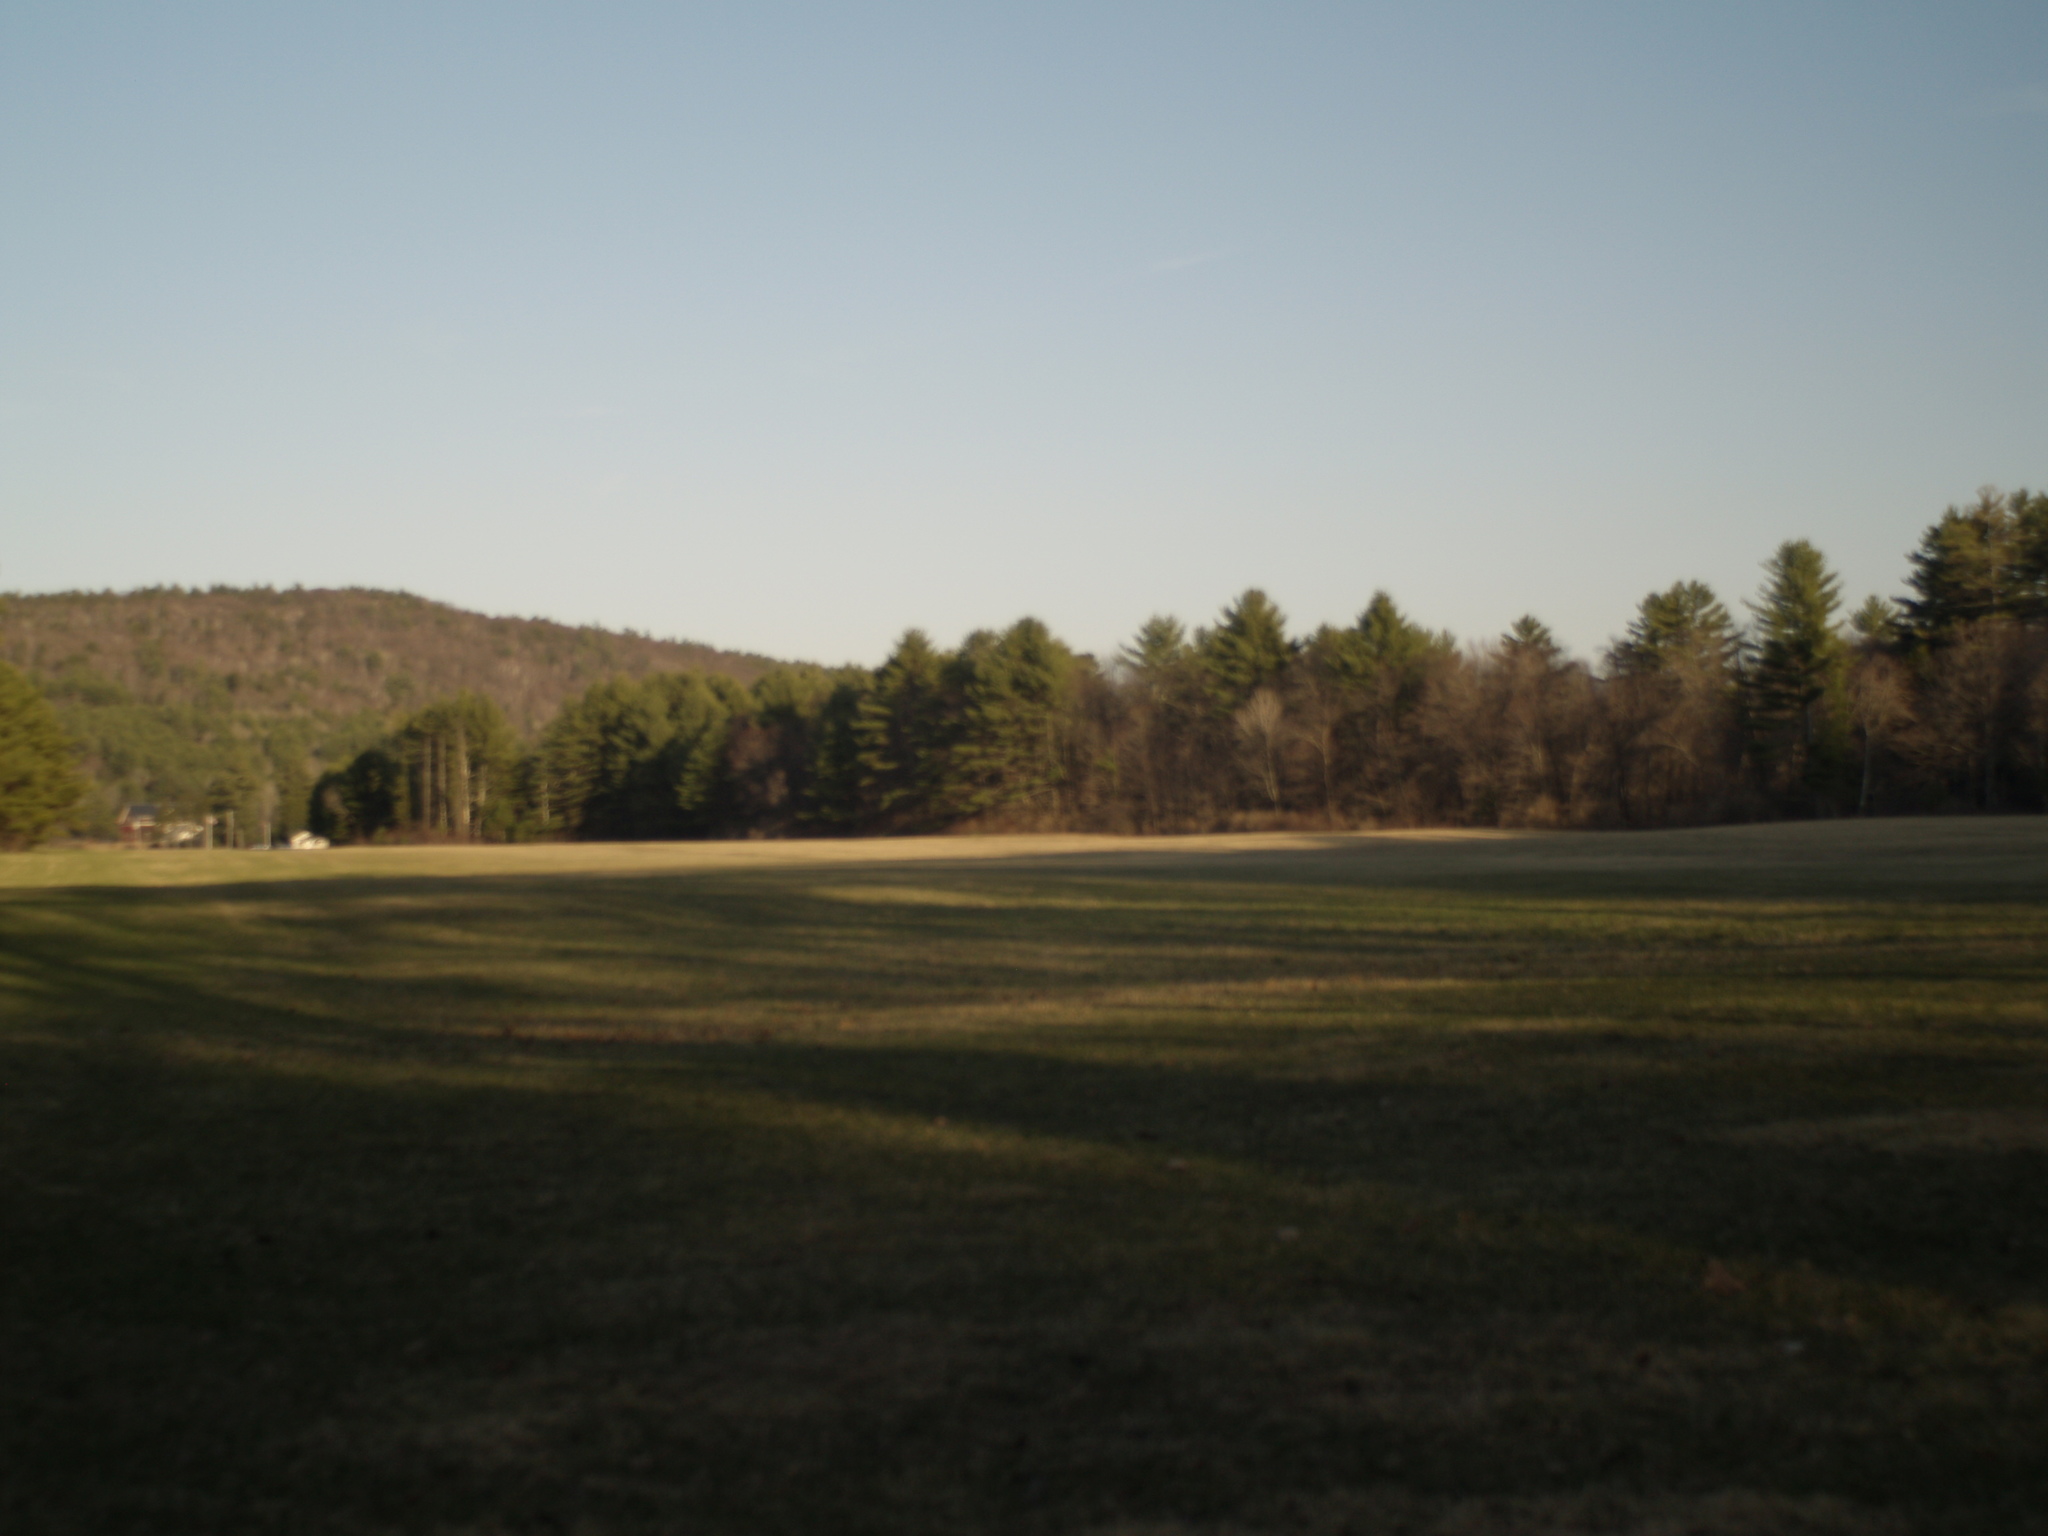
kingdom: Plantae
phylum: Tracheophyta
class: Pinopsida
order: Pinales
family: Pinaceae
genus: Pinus
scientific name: Pinus strobus
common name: Weymouth pine
